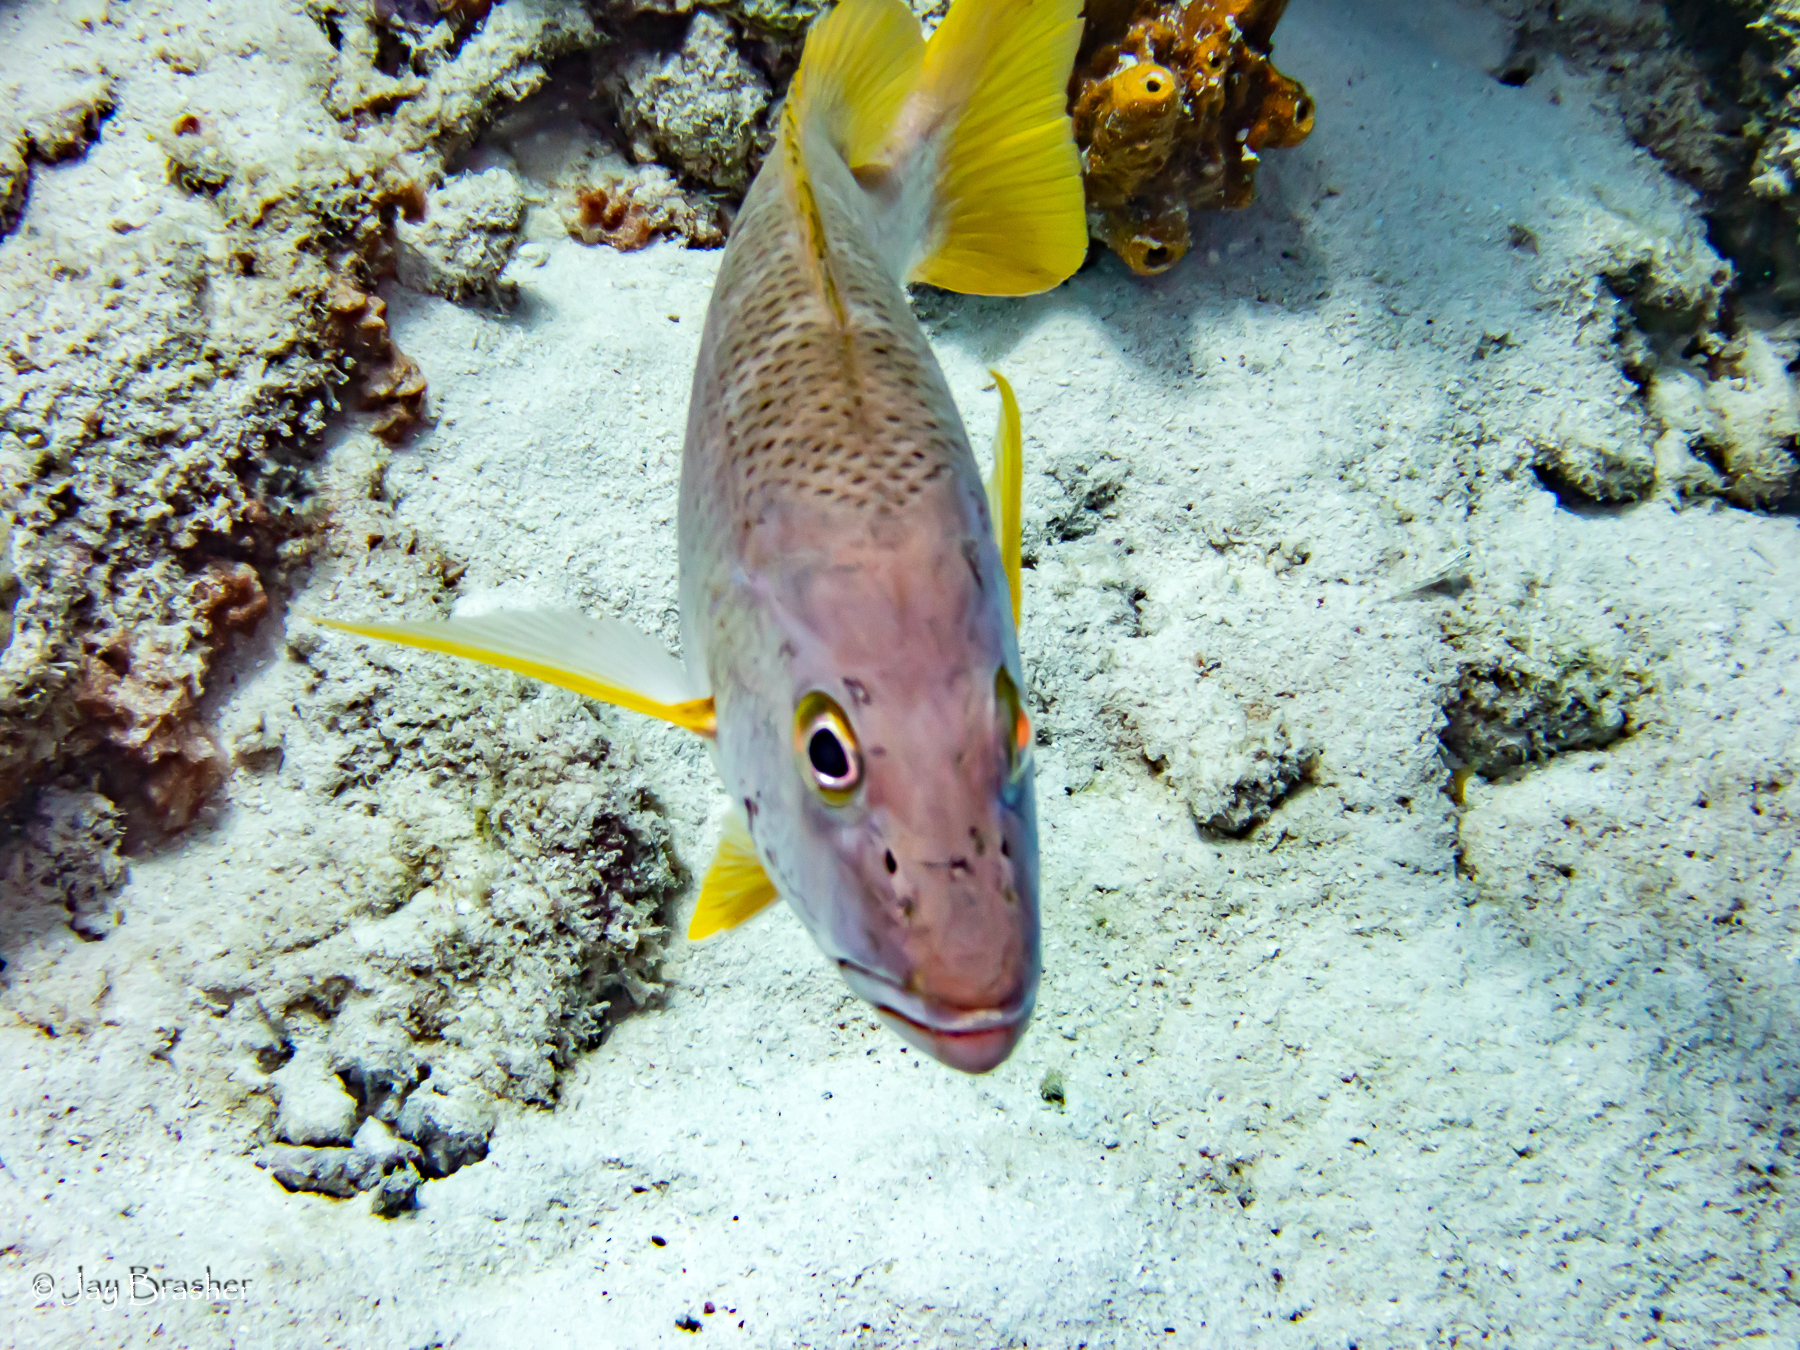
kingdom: Animalia
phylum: Chordata
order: Perciformes
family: Lutjanidae
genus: Lutjanus
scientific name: Lutjanus apodus
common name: Schoolmaster
